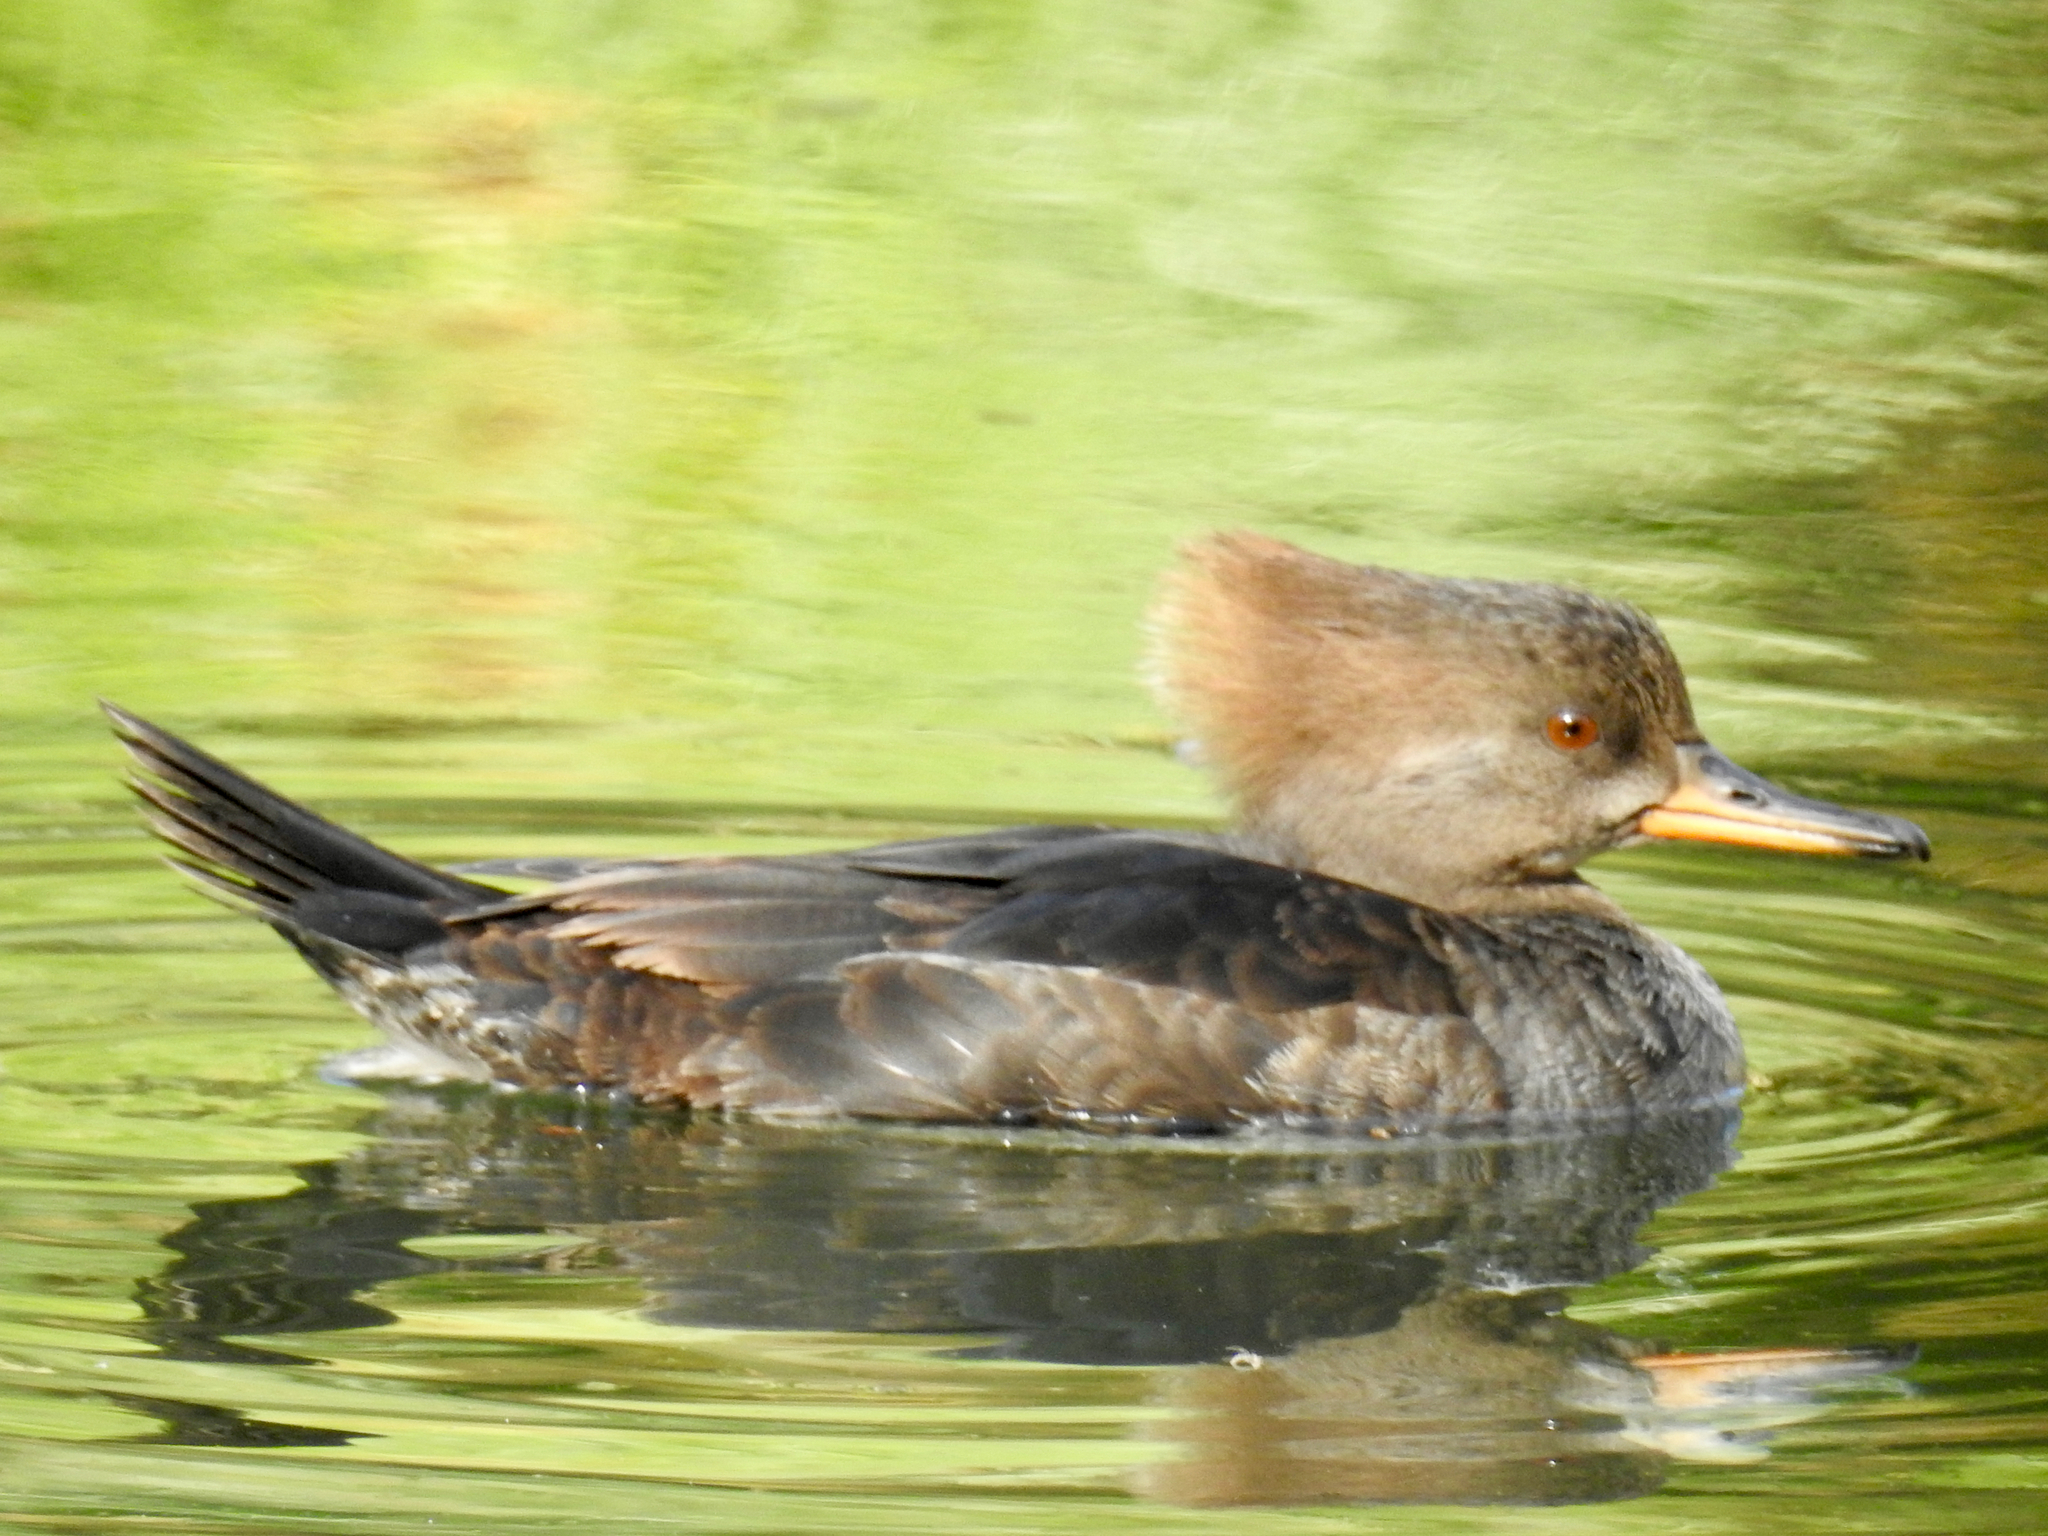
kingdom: Animalia
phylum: Chordata
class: Aves
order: Anseriformes
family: Anatidae
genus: Lophodytes
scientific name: Lophodytes cucullatus
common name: Hooded merganser
